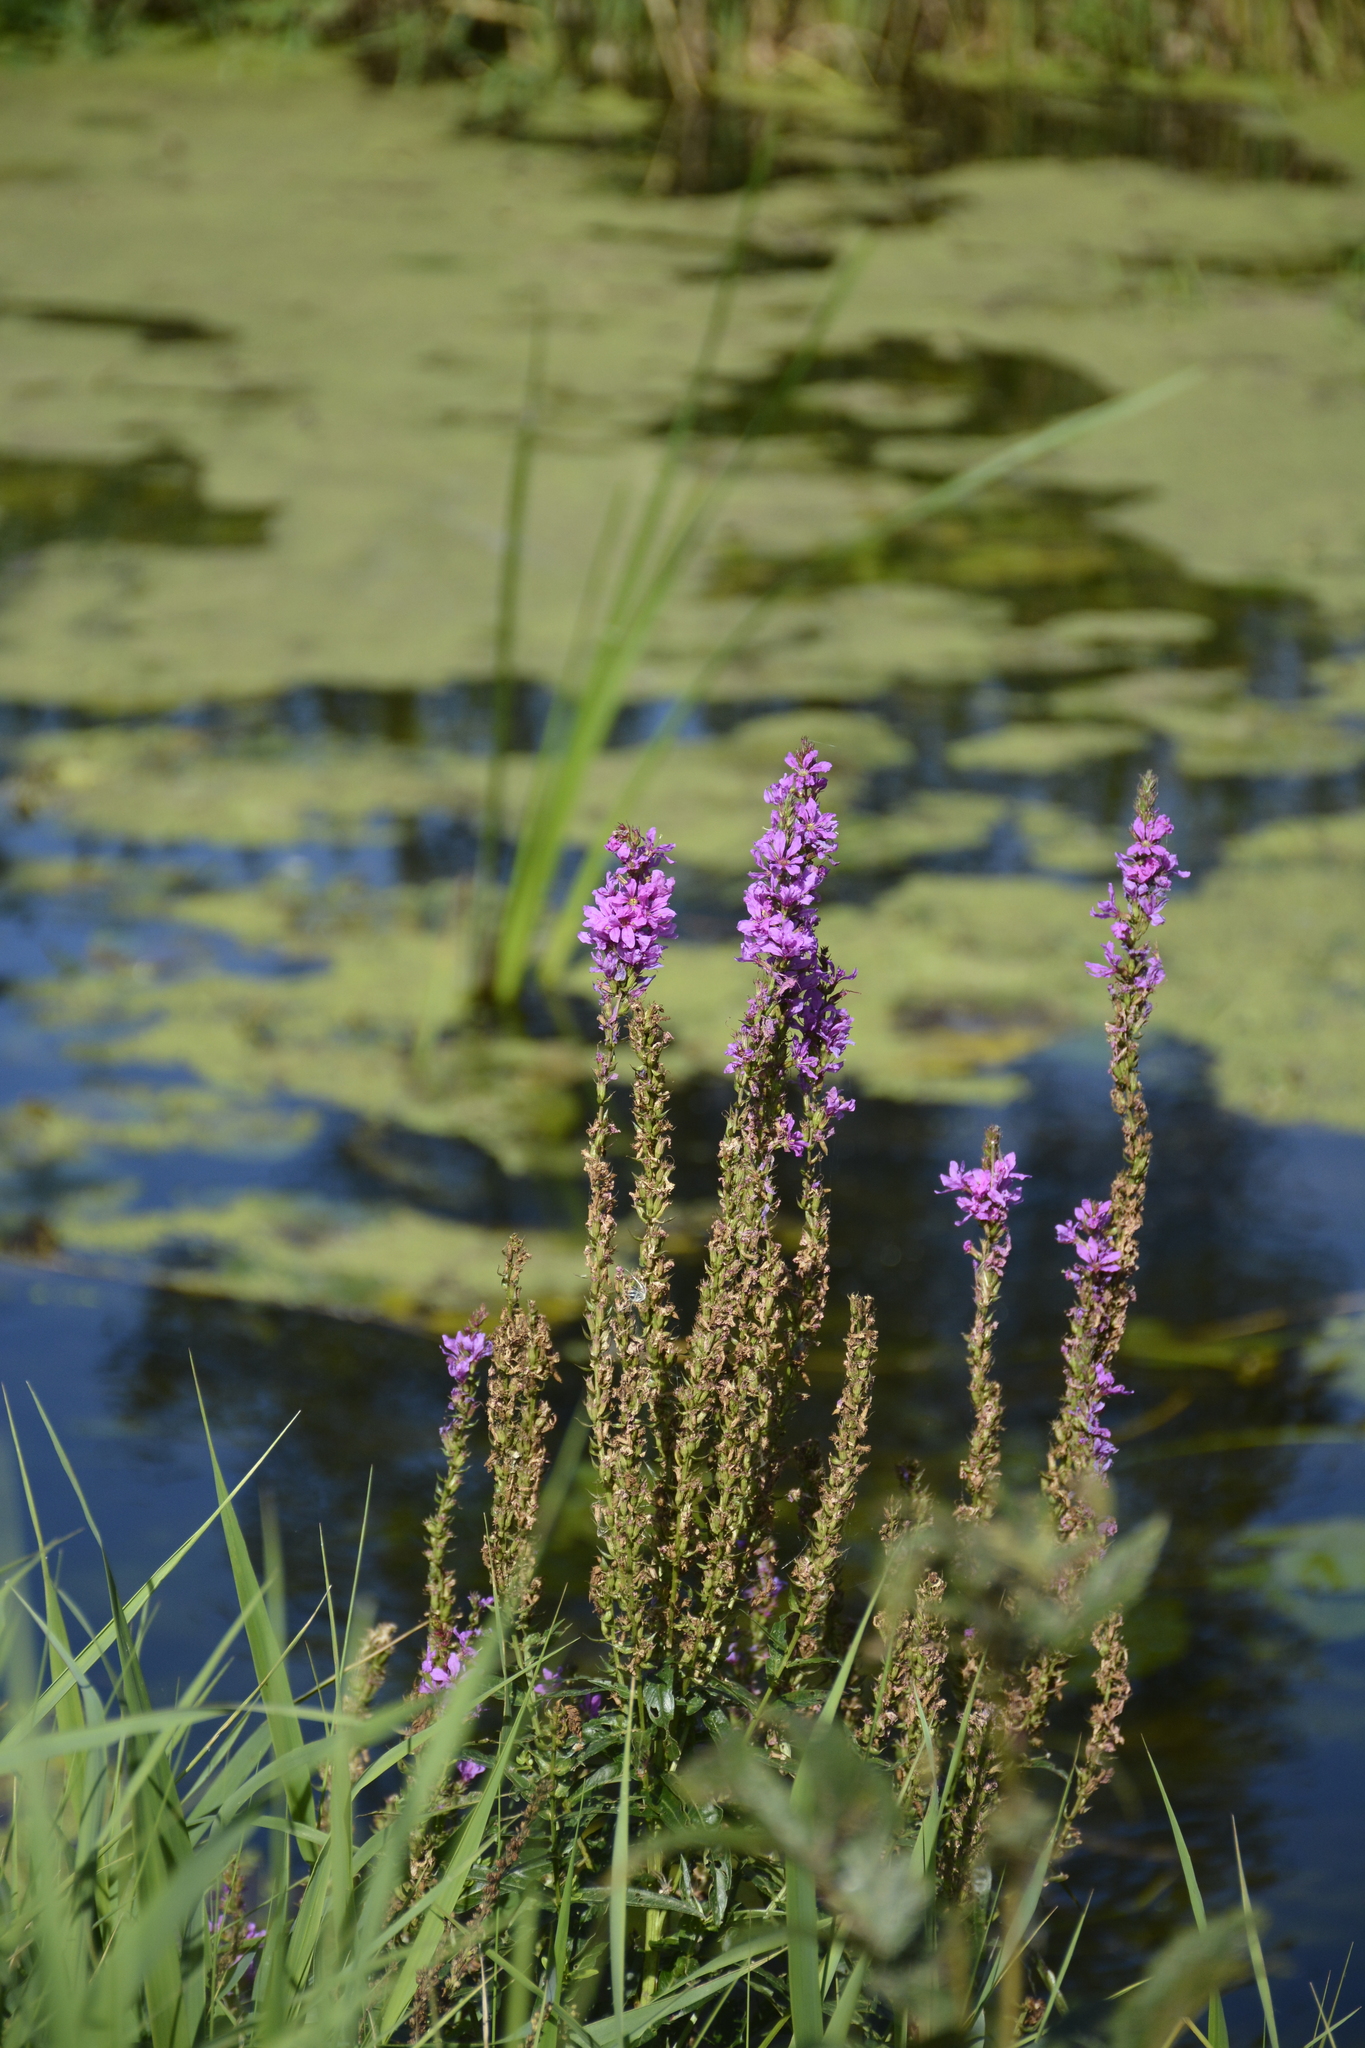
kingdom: Plantae
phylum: Tracheophyta
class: Magnoliopsida
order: Myrtales
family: Lythraceae
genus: Lythrum
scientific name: Lythrum salicaria
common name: Purple loosestrife
